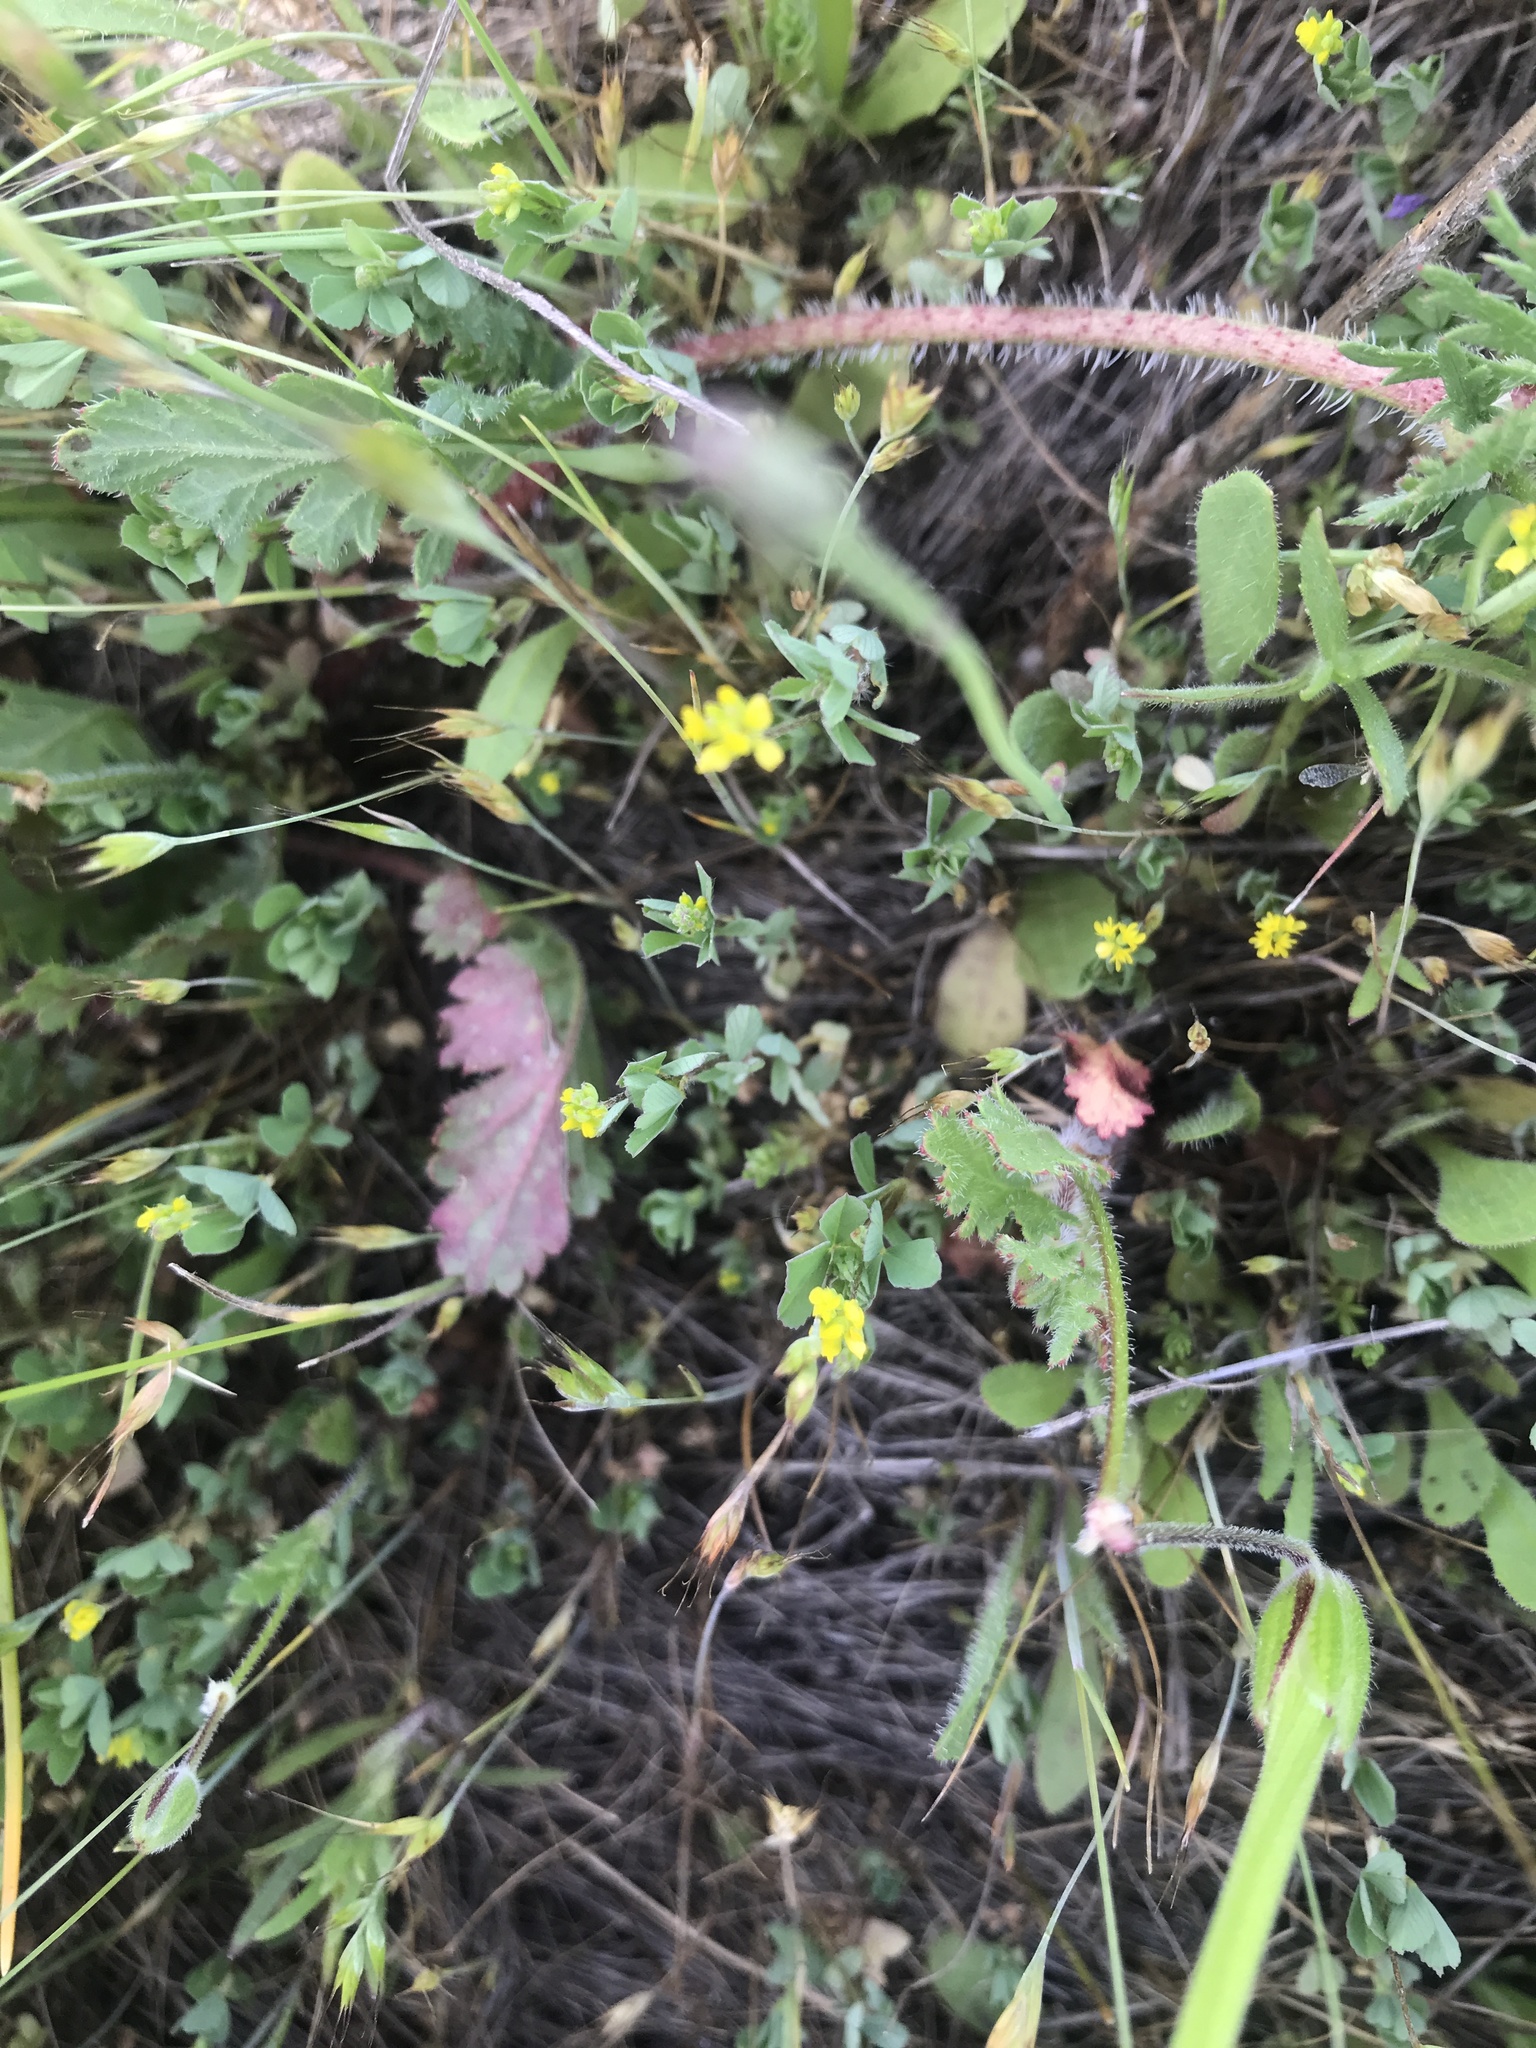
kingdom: Plantae
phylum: Tracheophyta
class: Magnoliopsida
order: Fabales
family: Fabaceae
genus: Trifolium
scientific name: Trifolium dubium
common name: Suckling clover
